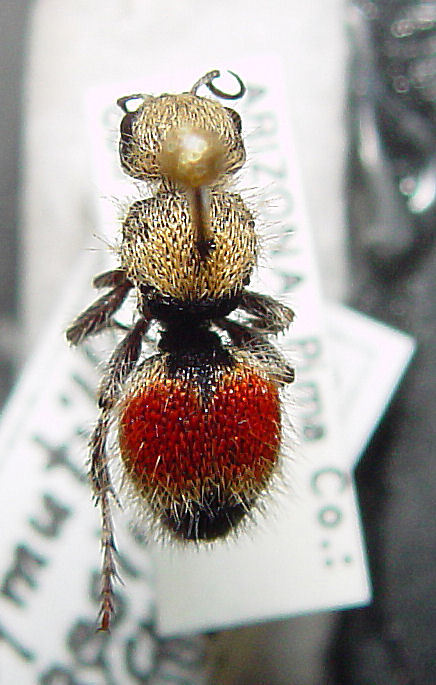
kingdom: Animalia
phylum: Arthropoda
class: Insecta
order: Hymenoptera
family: Mutillidae
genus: Dasymutilla
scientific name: Dasymutilla foxi
